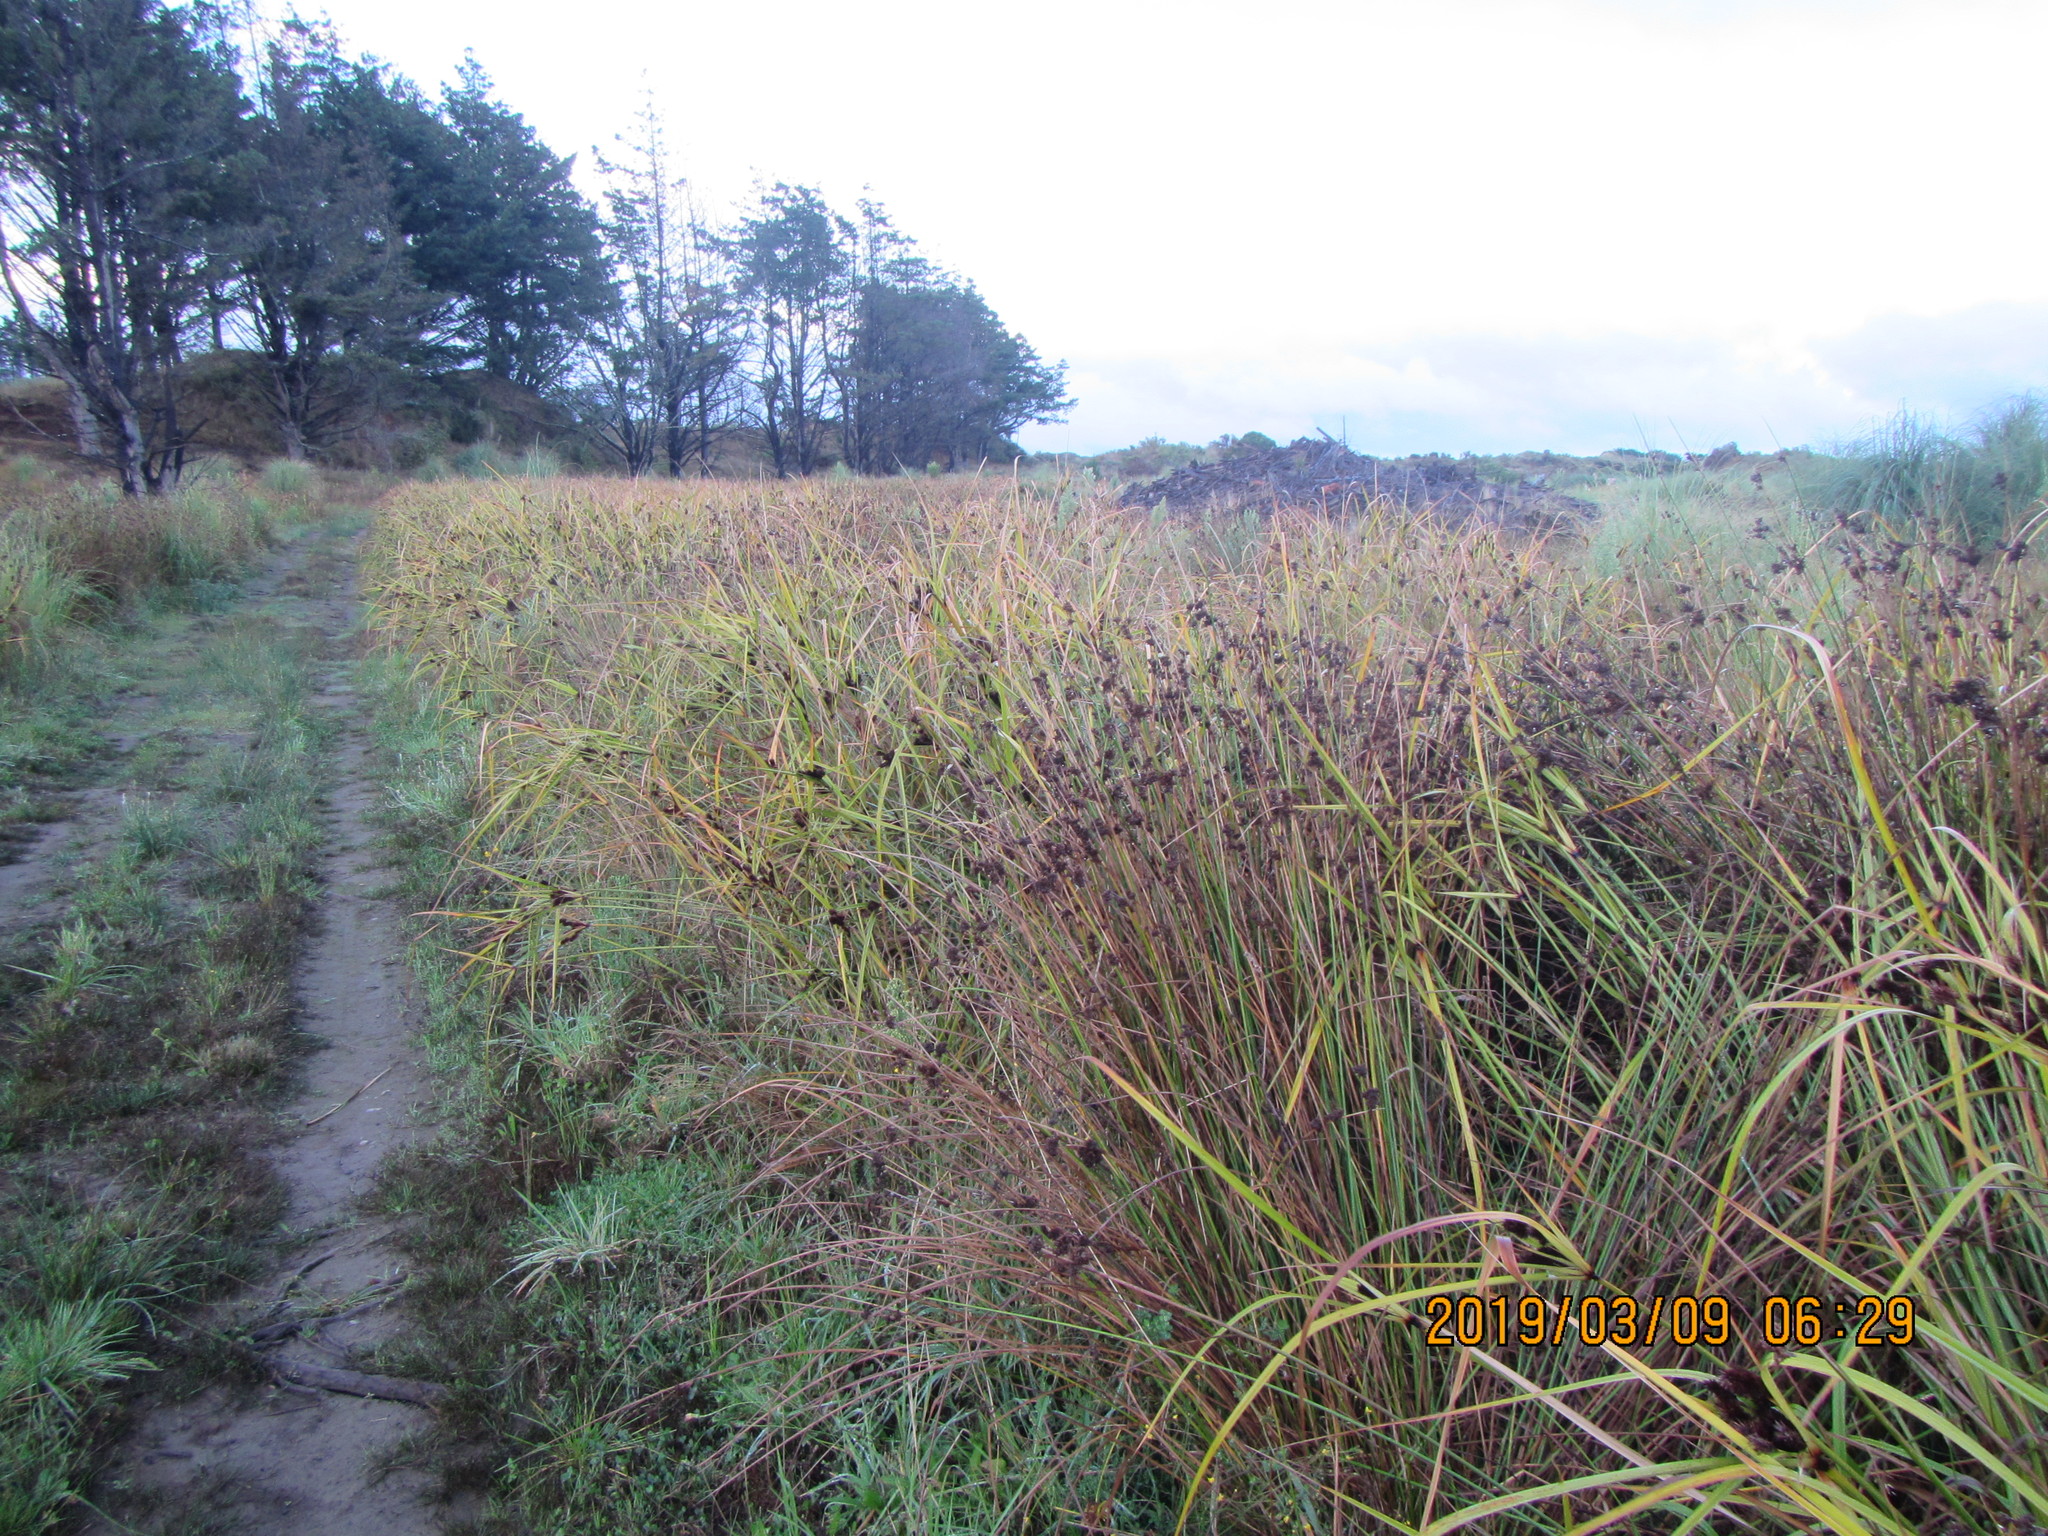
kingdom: Plantae
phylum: Tracheophyta
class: Liliopsida
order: Poales
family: Cyperaceae
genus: Cyperus
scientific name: Cyperus ustulatus
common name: Giant umbrella-sedge
